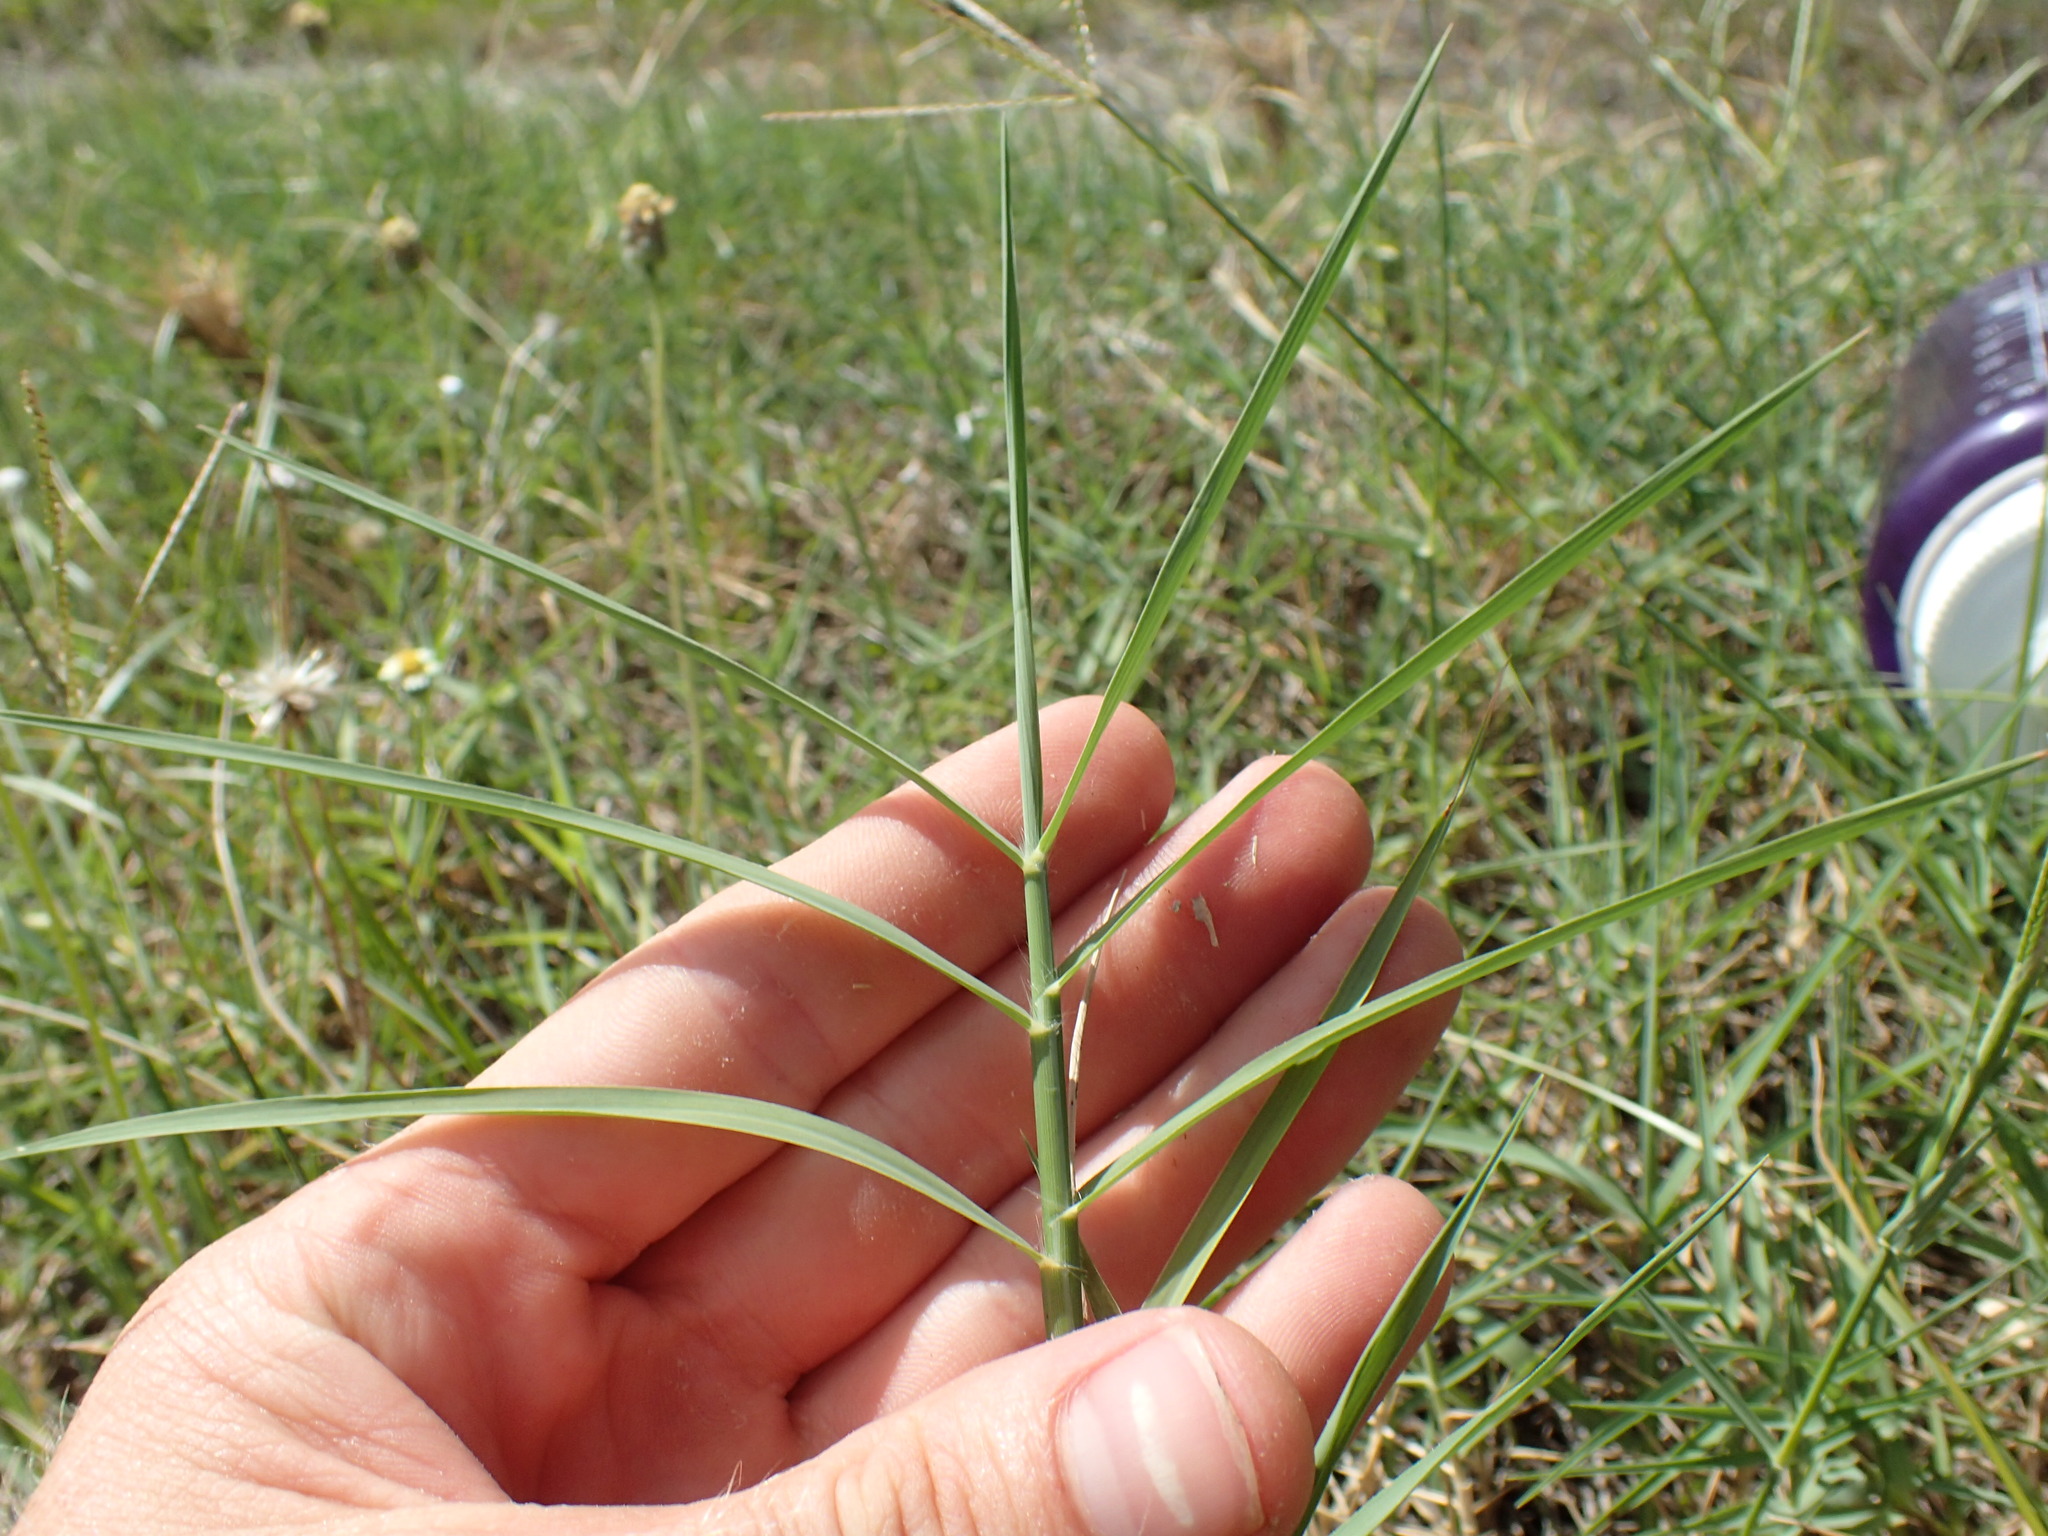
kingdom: Plantae
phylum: Tracheophyta
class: Liliopsida
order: Poales
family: Poaceae
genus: Cynodon
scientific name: Cynodon dactylon
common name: Bermuda grass
